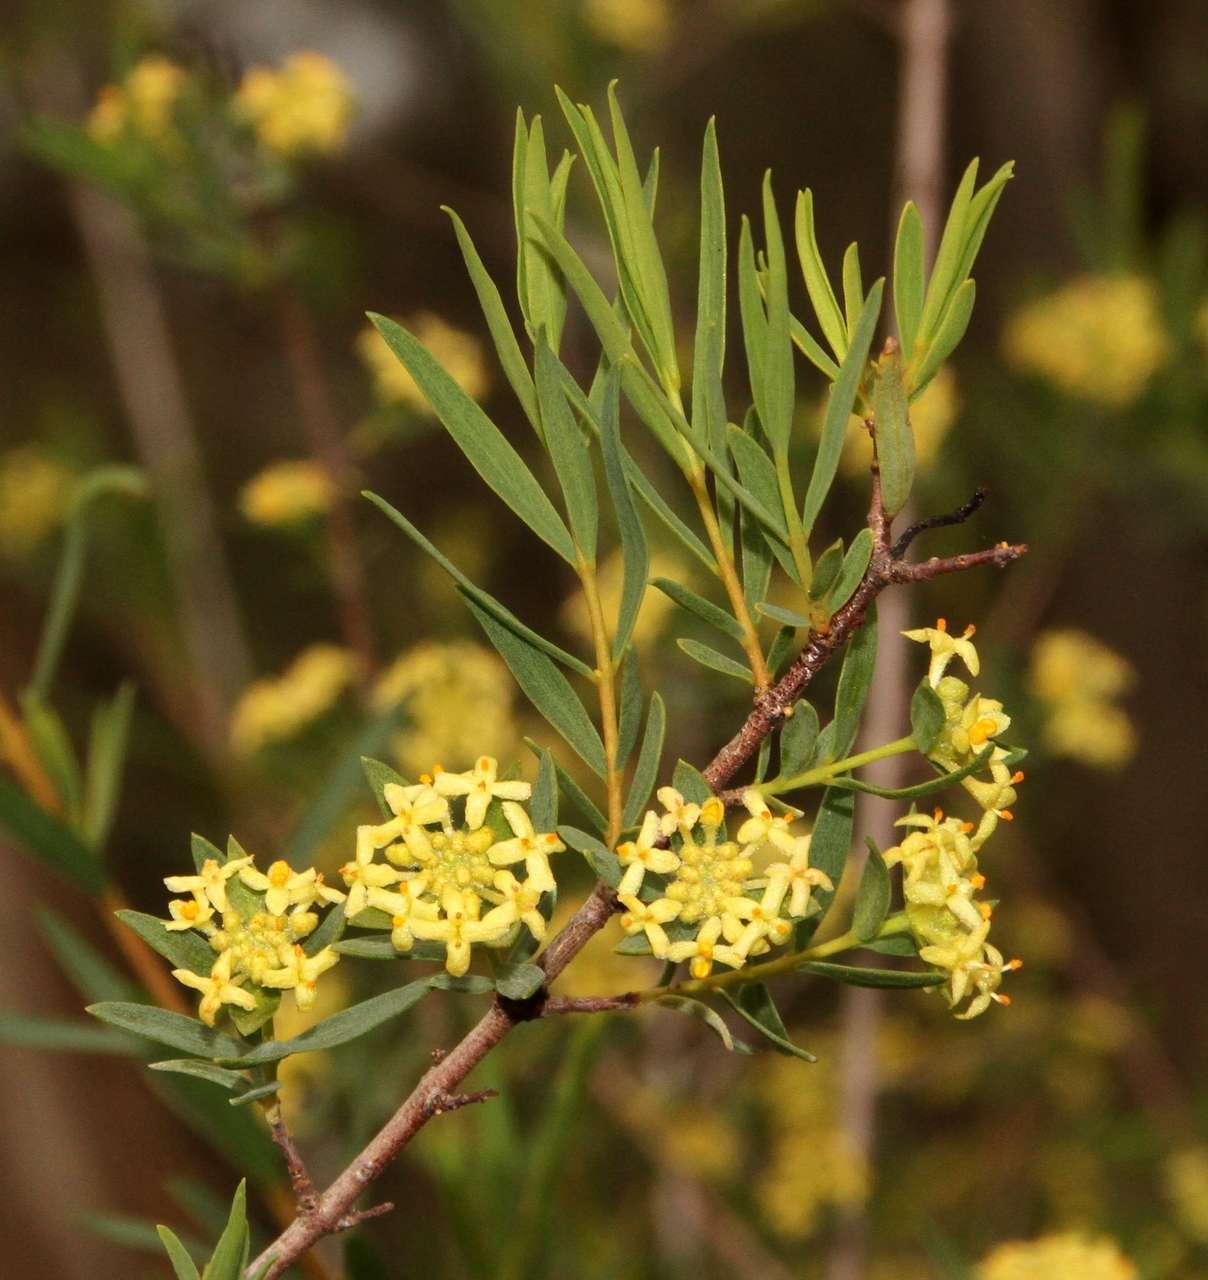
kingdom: Plantae
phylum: Tracheophyta
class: Magnoliopsida
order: Malvales
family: Thymelaeaceae
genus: Pimelea
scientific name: Pimelea microcephala
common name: Mallee riceflower
